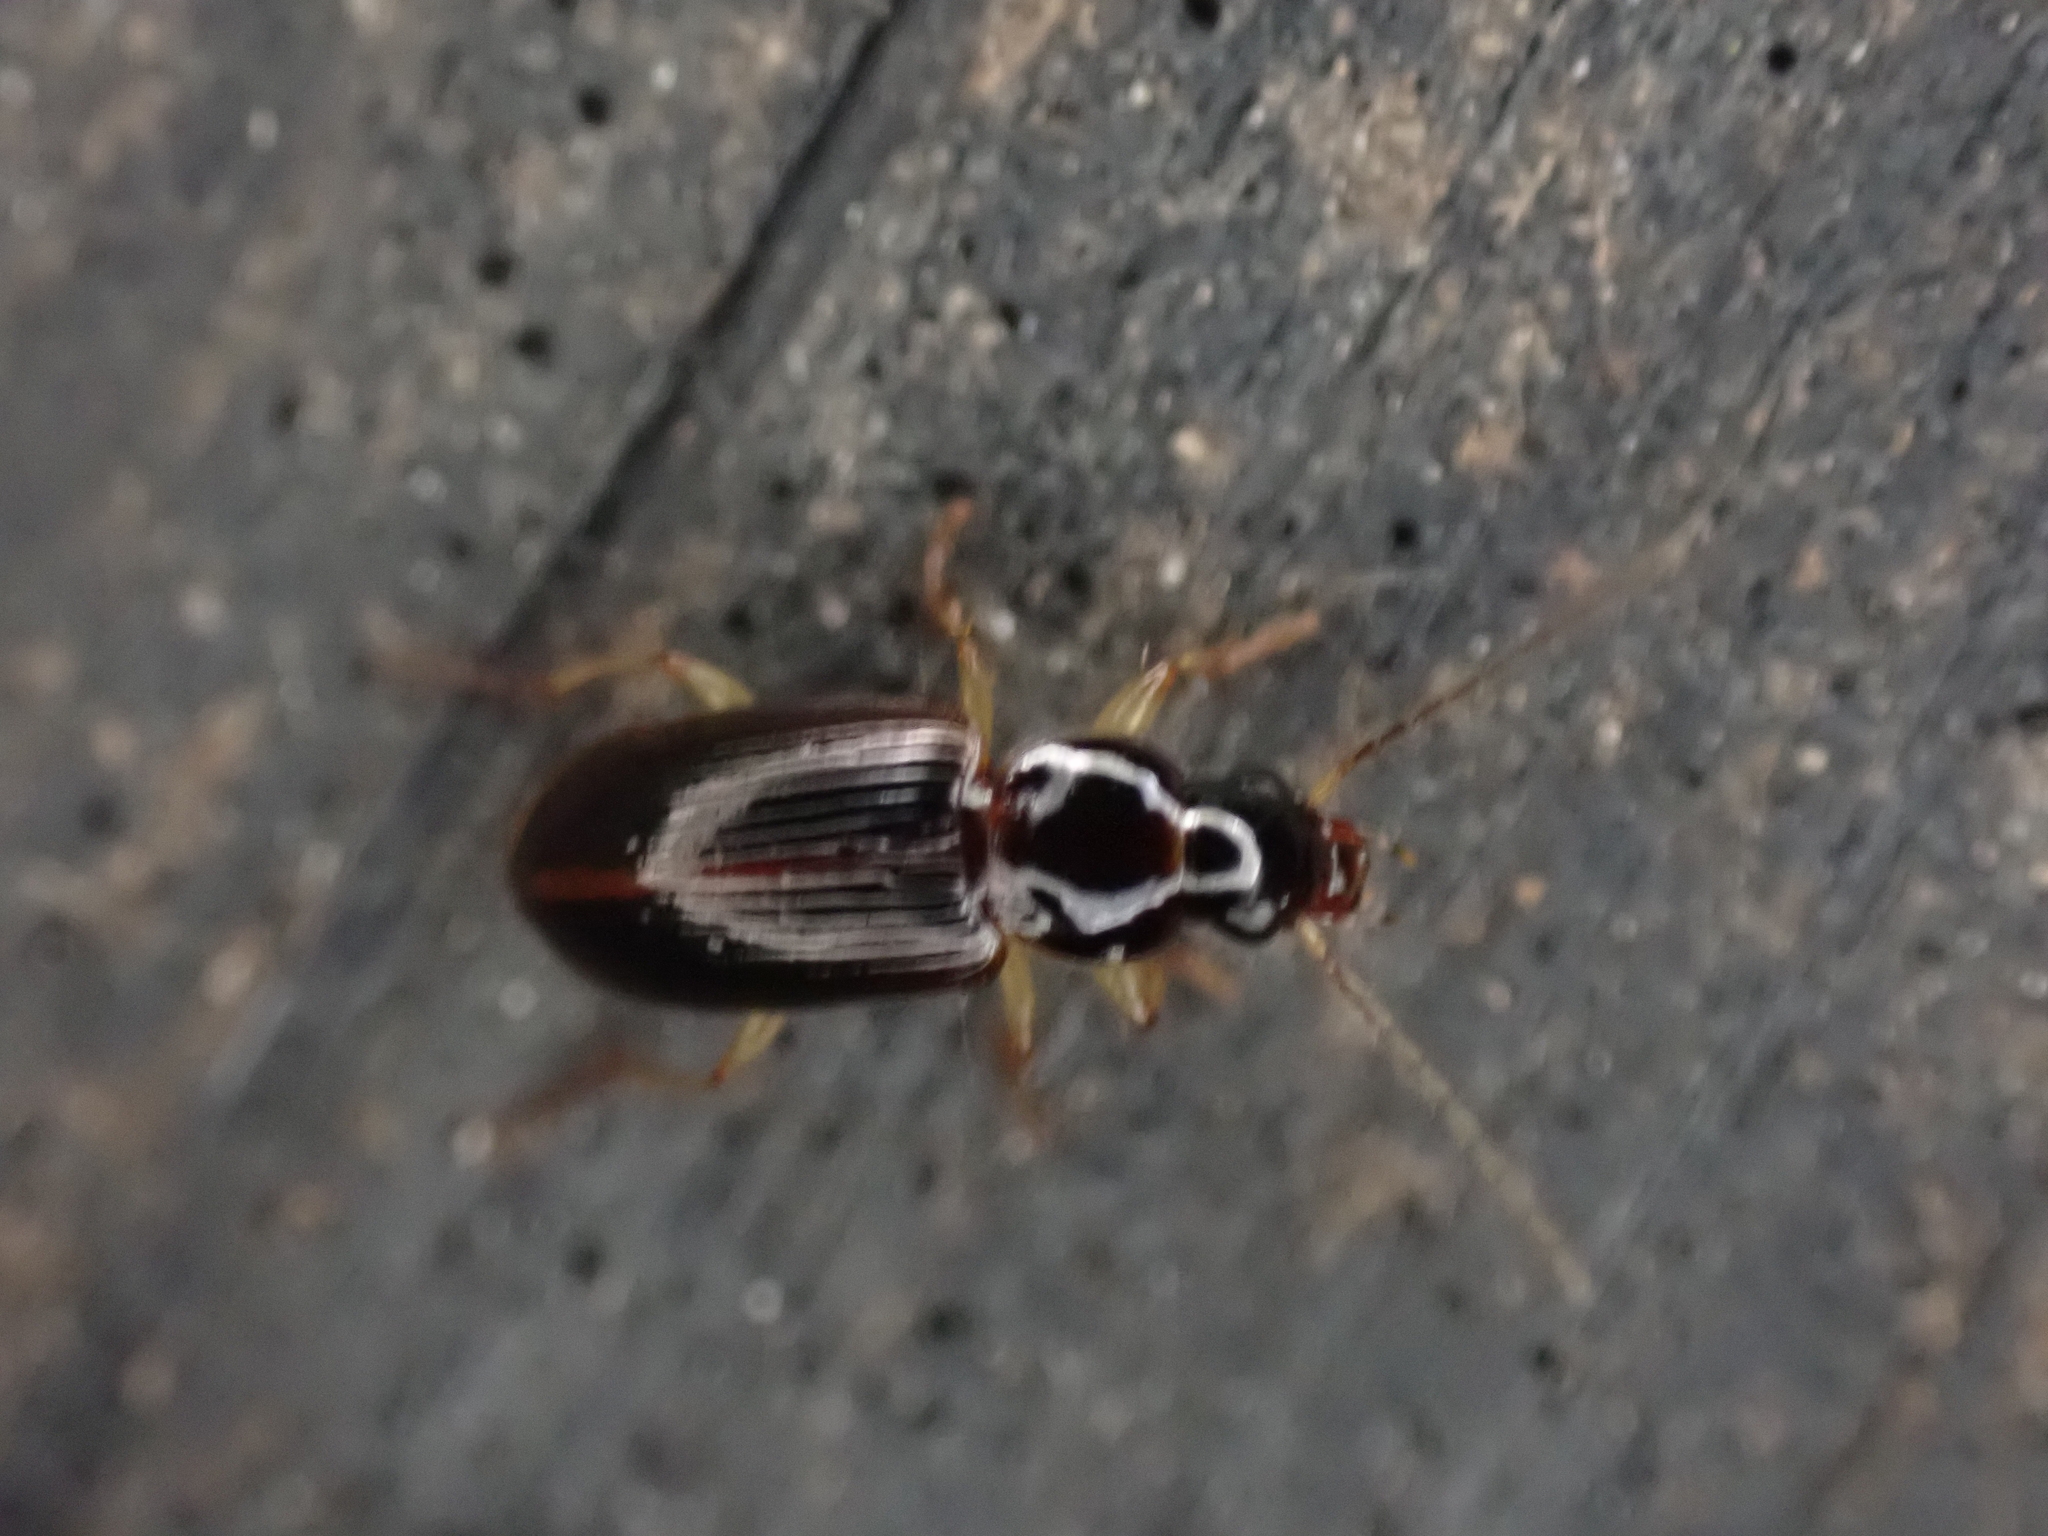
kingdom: Animalia
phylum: Arthropoda
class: Insecta
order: Coleoptera
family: Carabidae
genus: Stenolophus
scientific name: Stenolophus ochropezus
